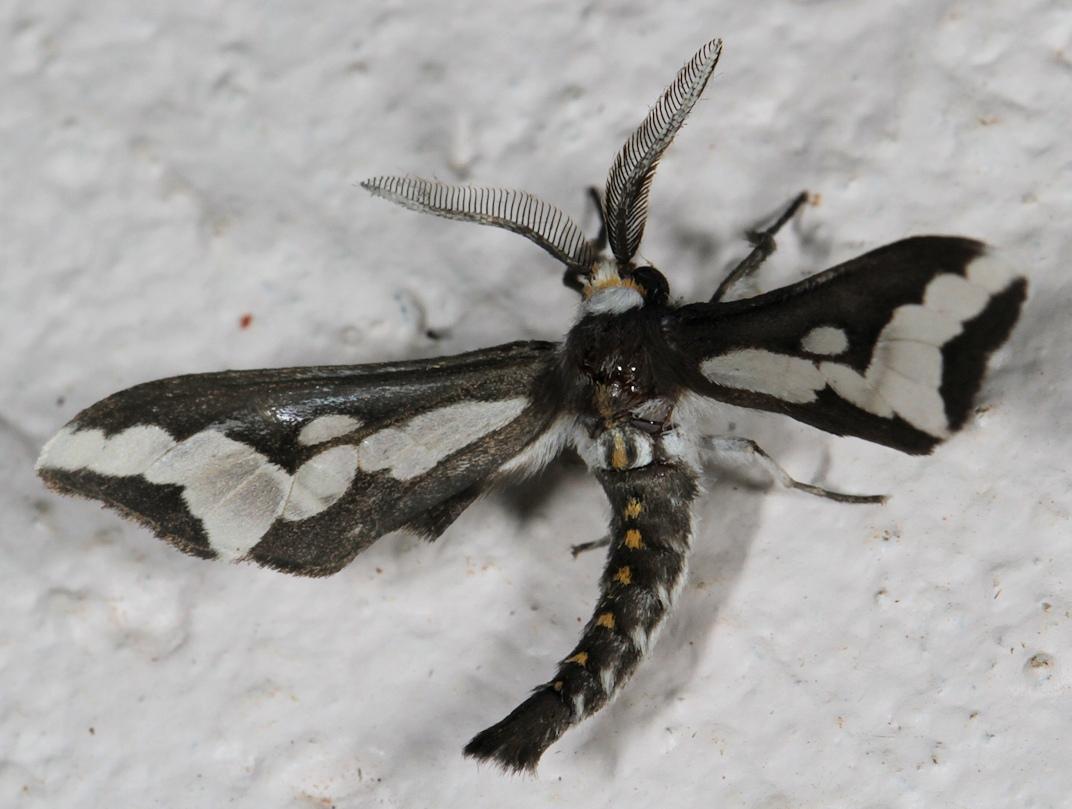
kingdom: Animalia
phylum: Arthropoda
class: Insecta
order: Lepidoptera
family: Erebidae
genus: Thyretes
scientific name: Thyretes caffra
